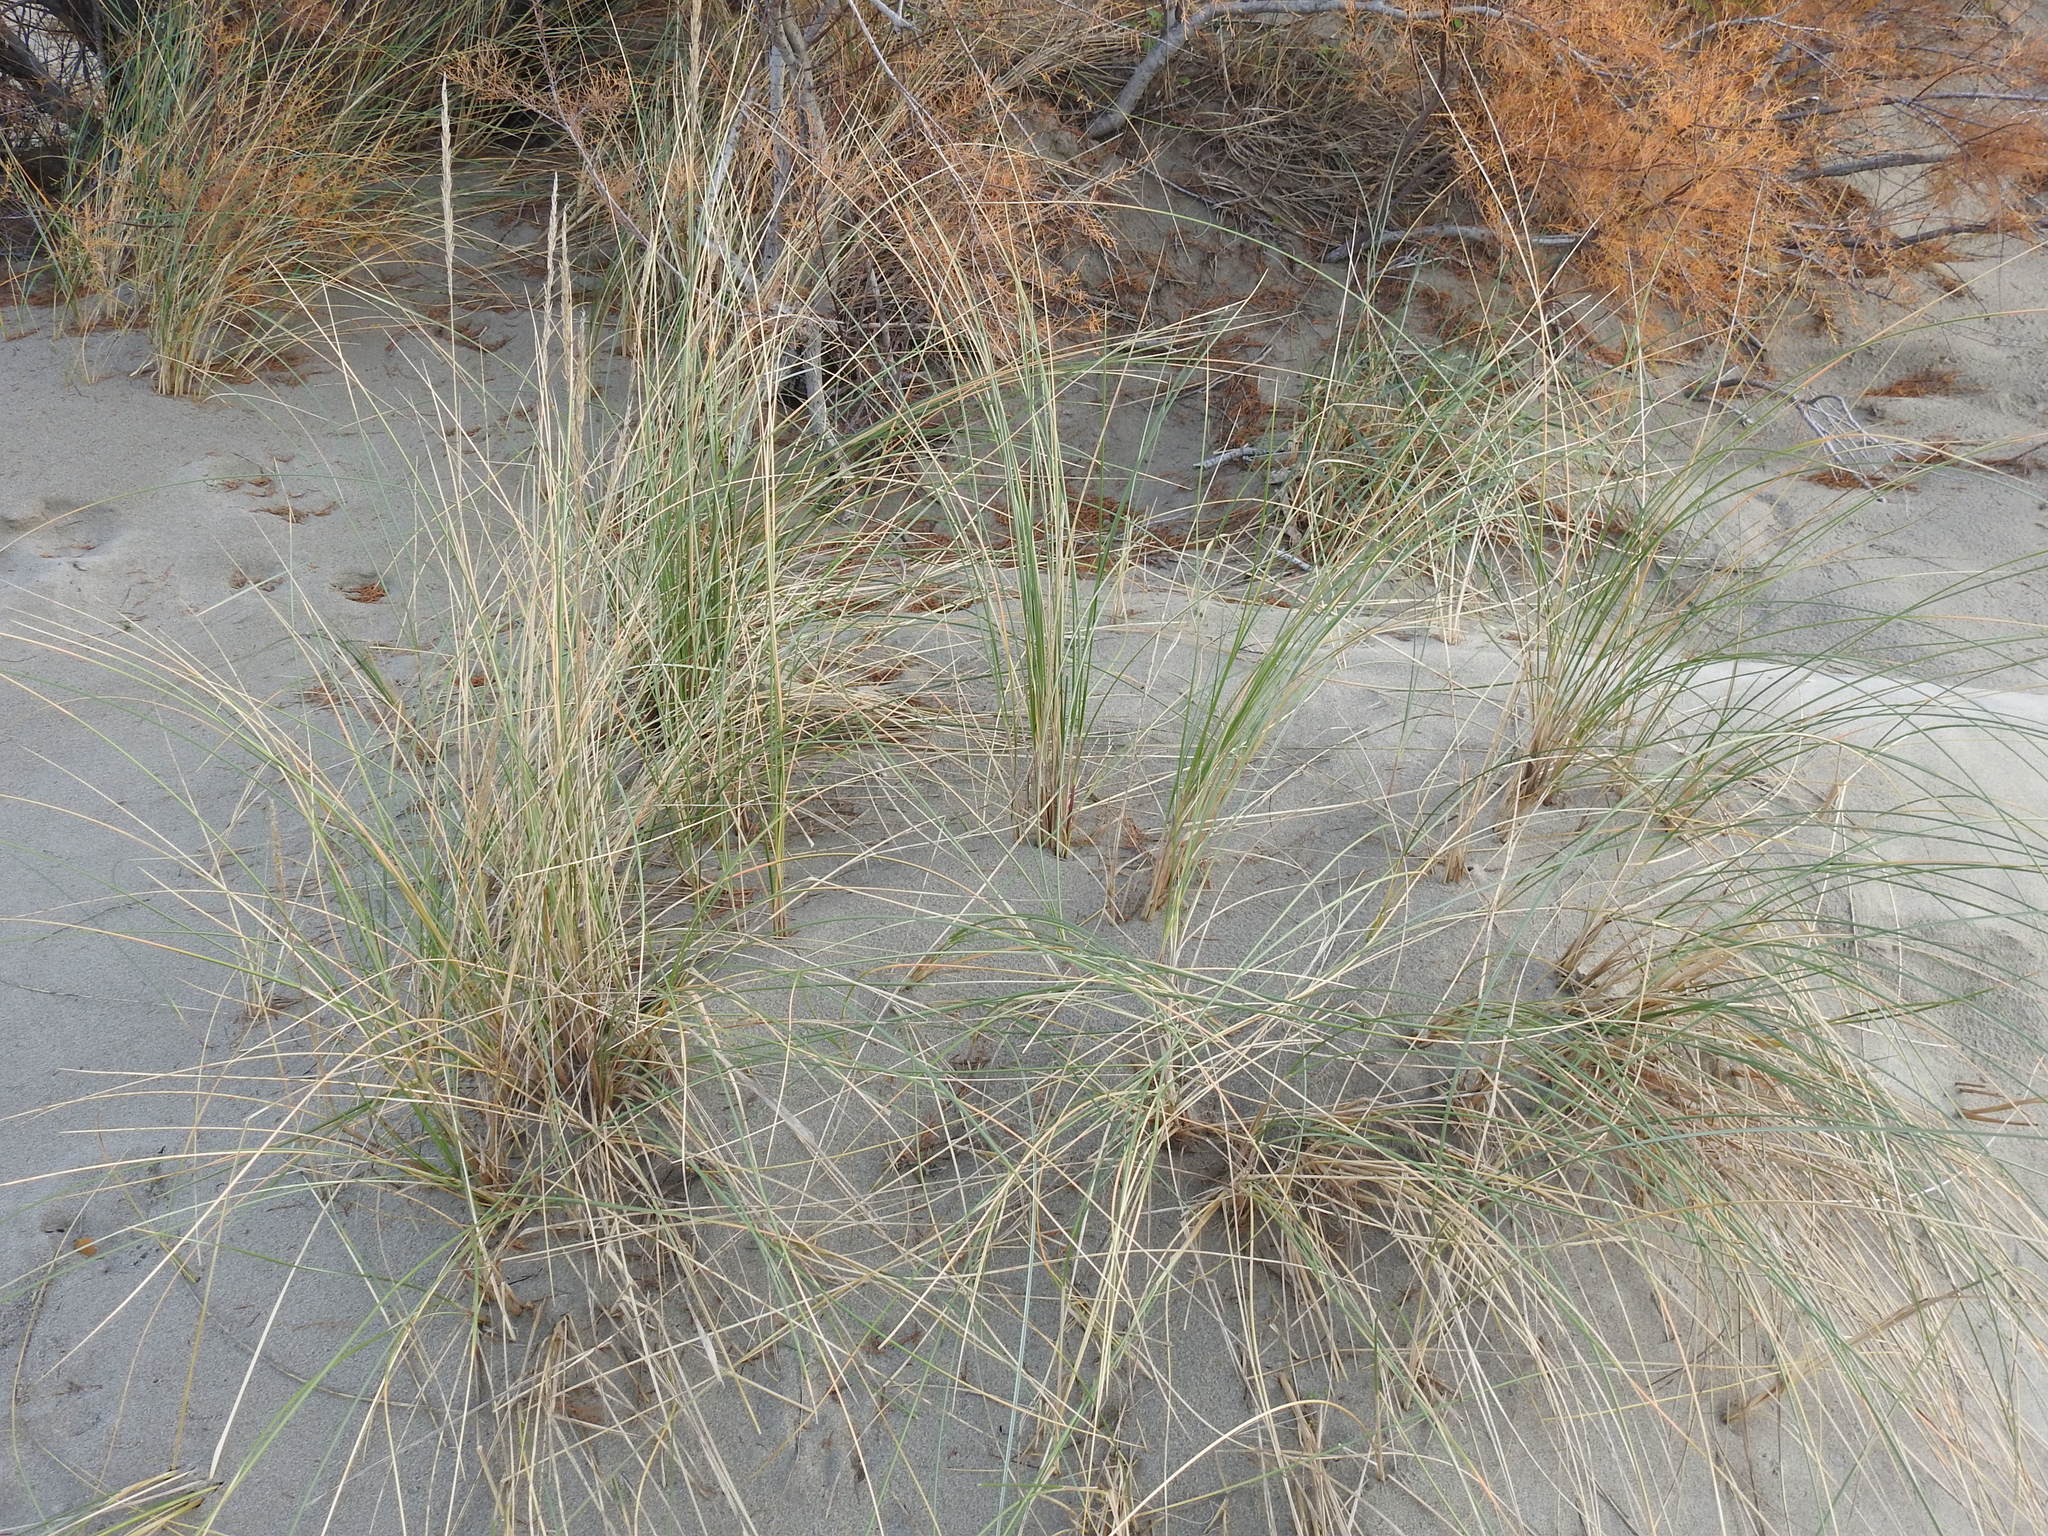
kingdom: Plantae
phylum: Tracheophyta
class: Liliopsida
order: Poales
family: Poaceae
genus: Calamagrostis
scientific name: Calamagrostis arenaria
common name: European beachgrass
